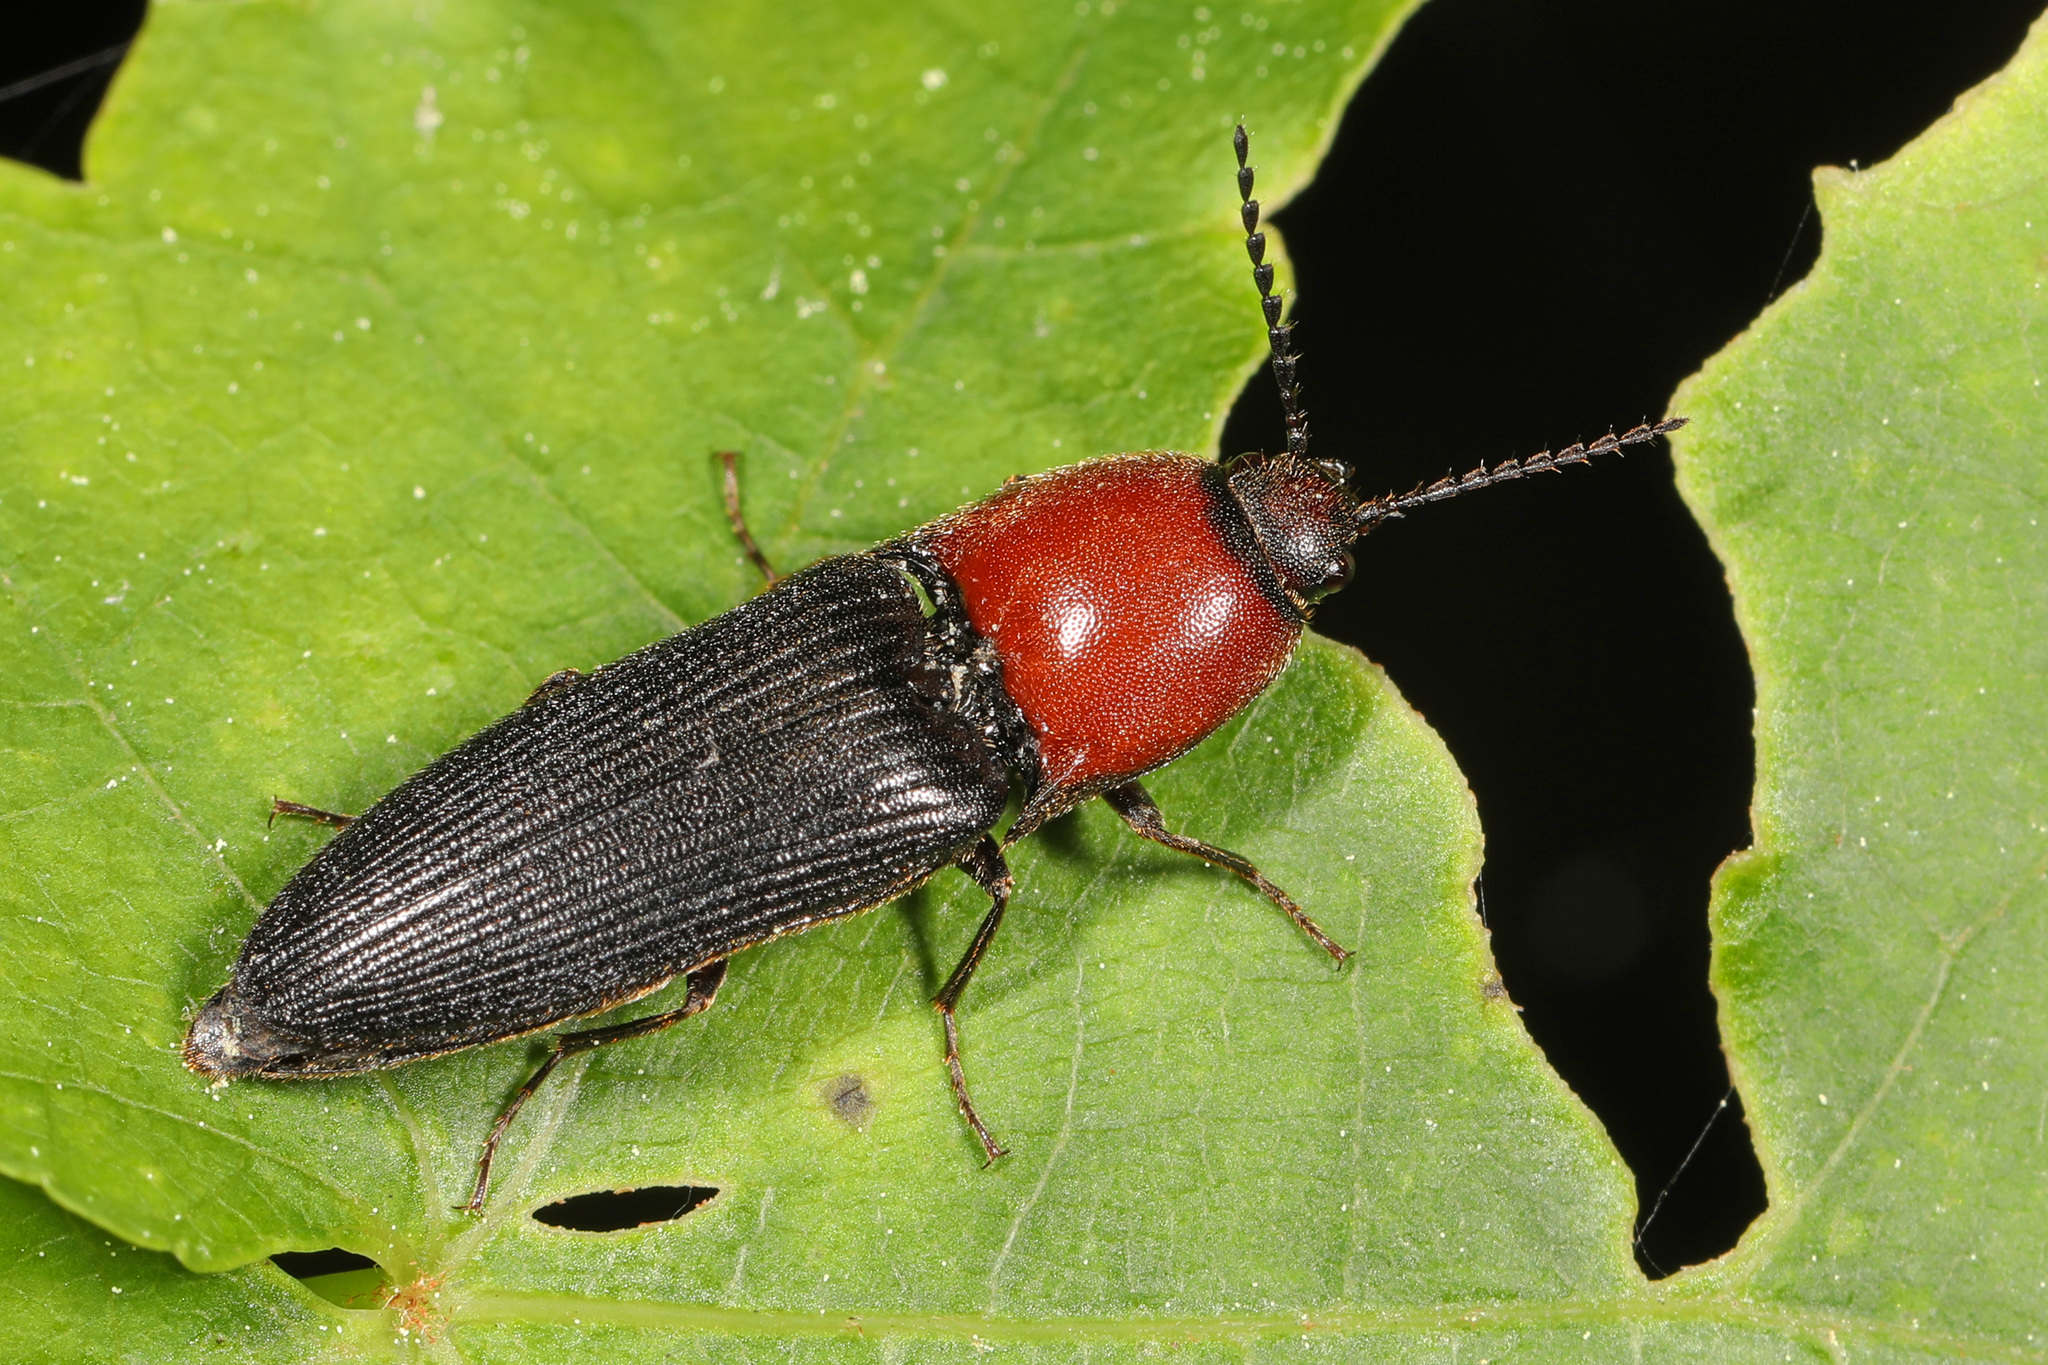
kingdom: Animalia
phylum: Arthropoda
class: Insecta
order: Coleoptera
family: Elateridae
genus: Ampedus
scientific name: Ampedus rubricollis
